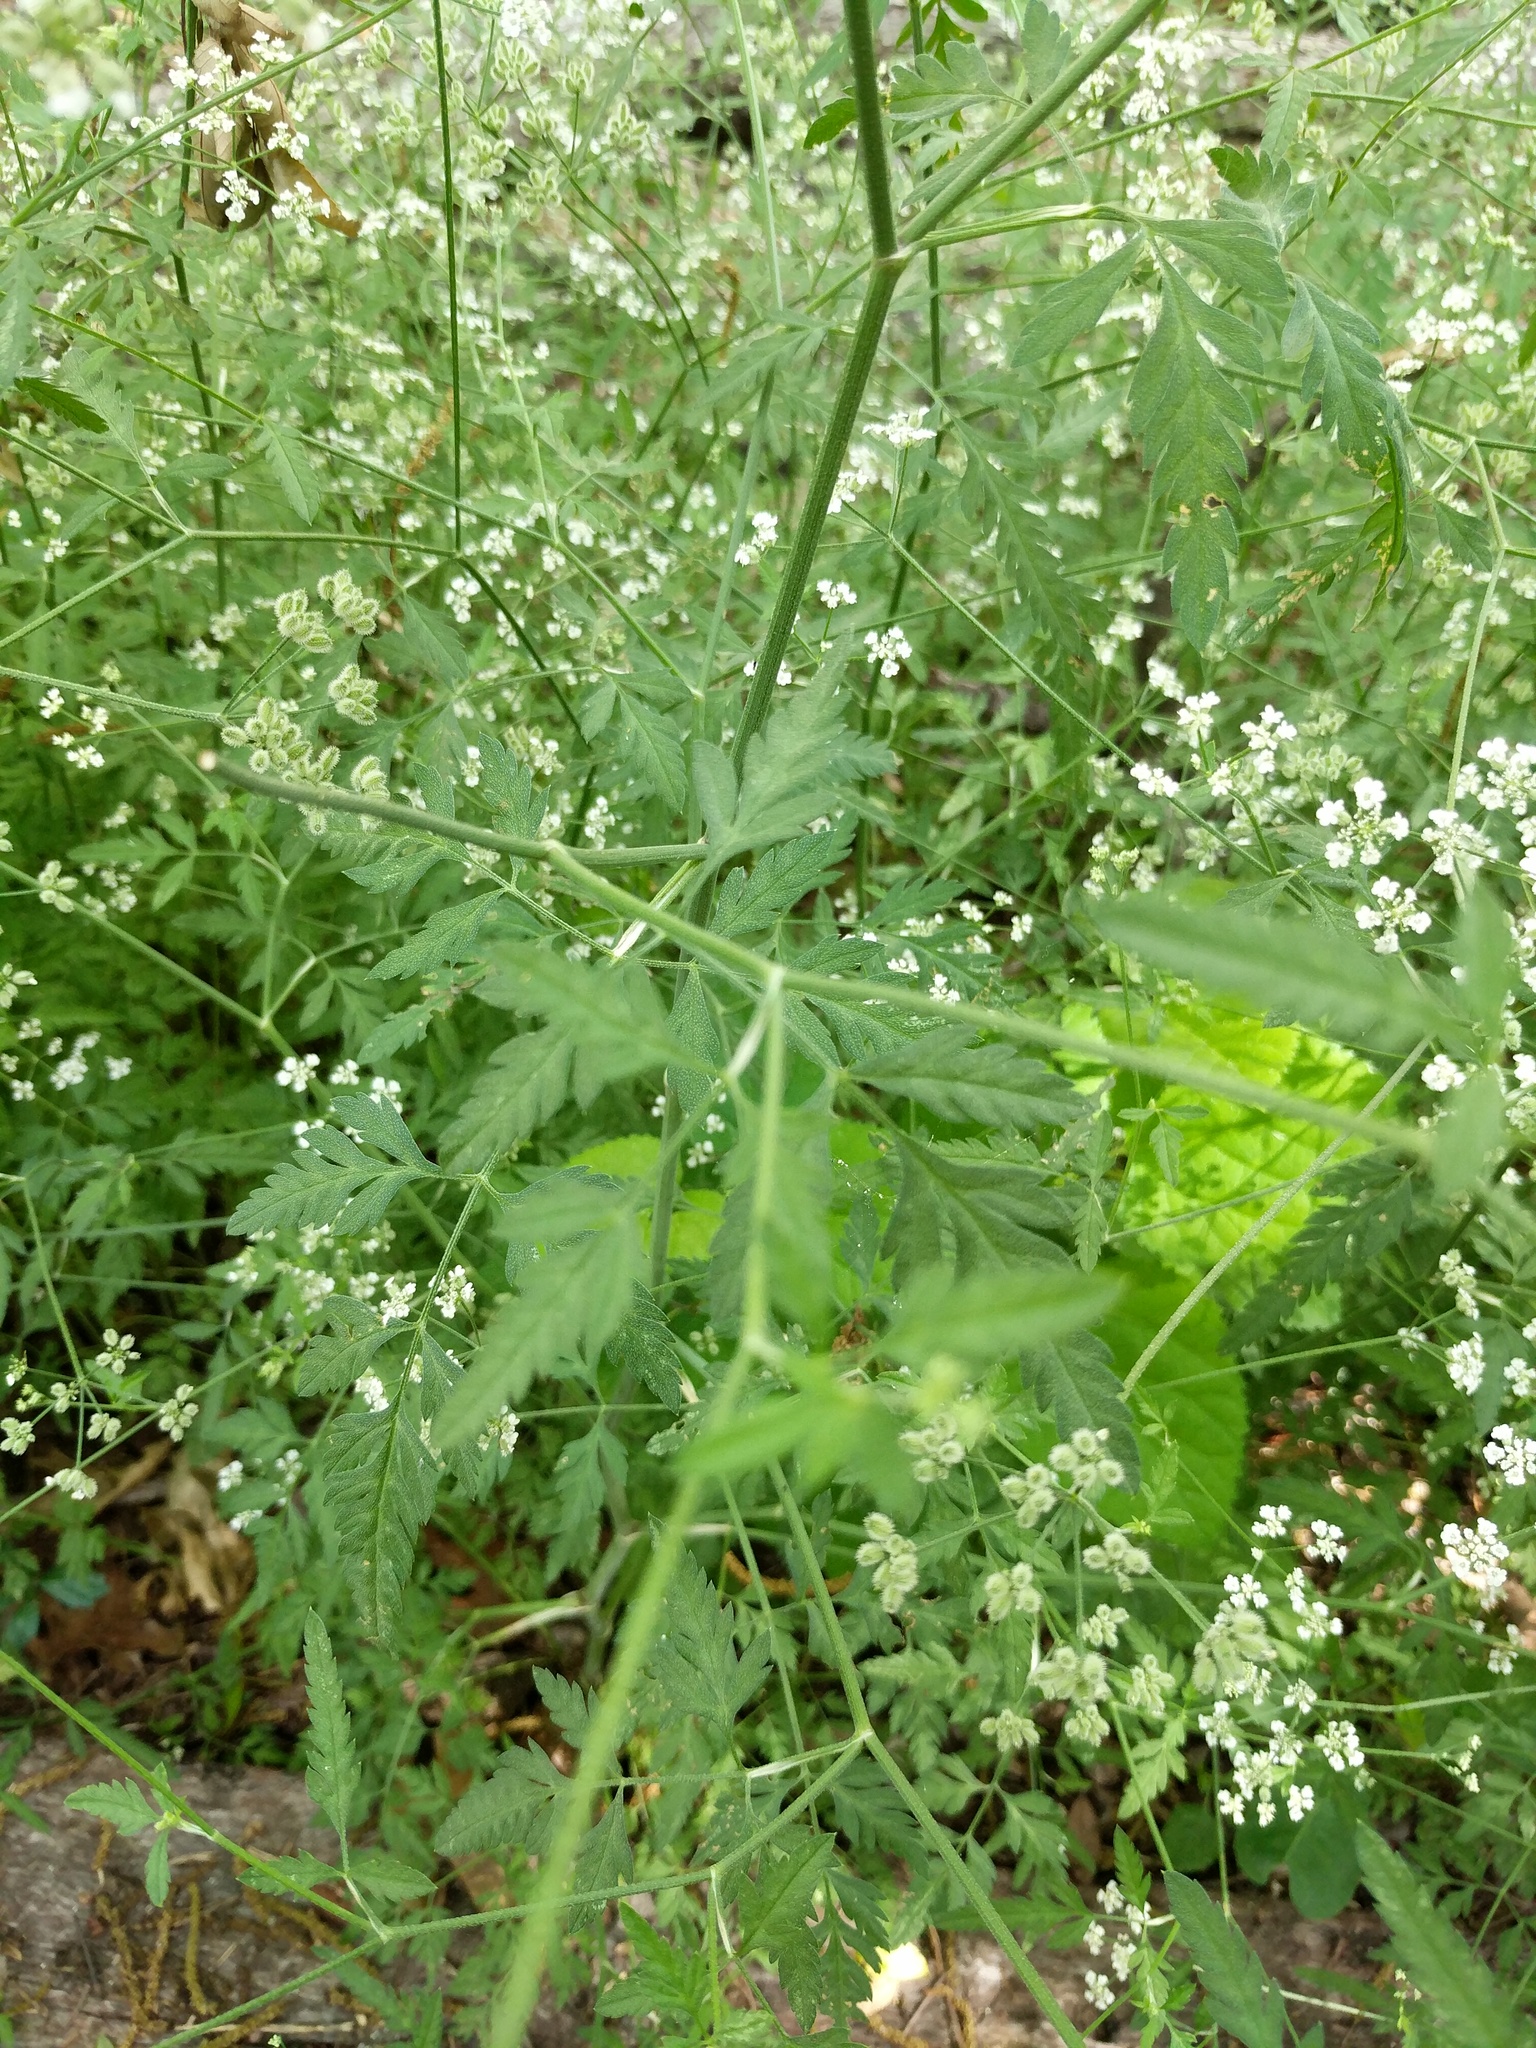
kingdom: Plantae
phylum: Tracheophyta
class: Magnoliopsida
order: Apiales
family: Apiaceae
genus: Torilis
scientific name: Torilis arvensis
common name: Spreading hedge-parsley
